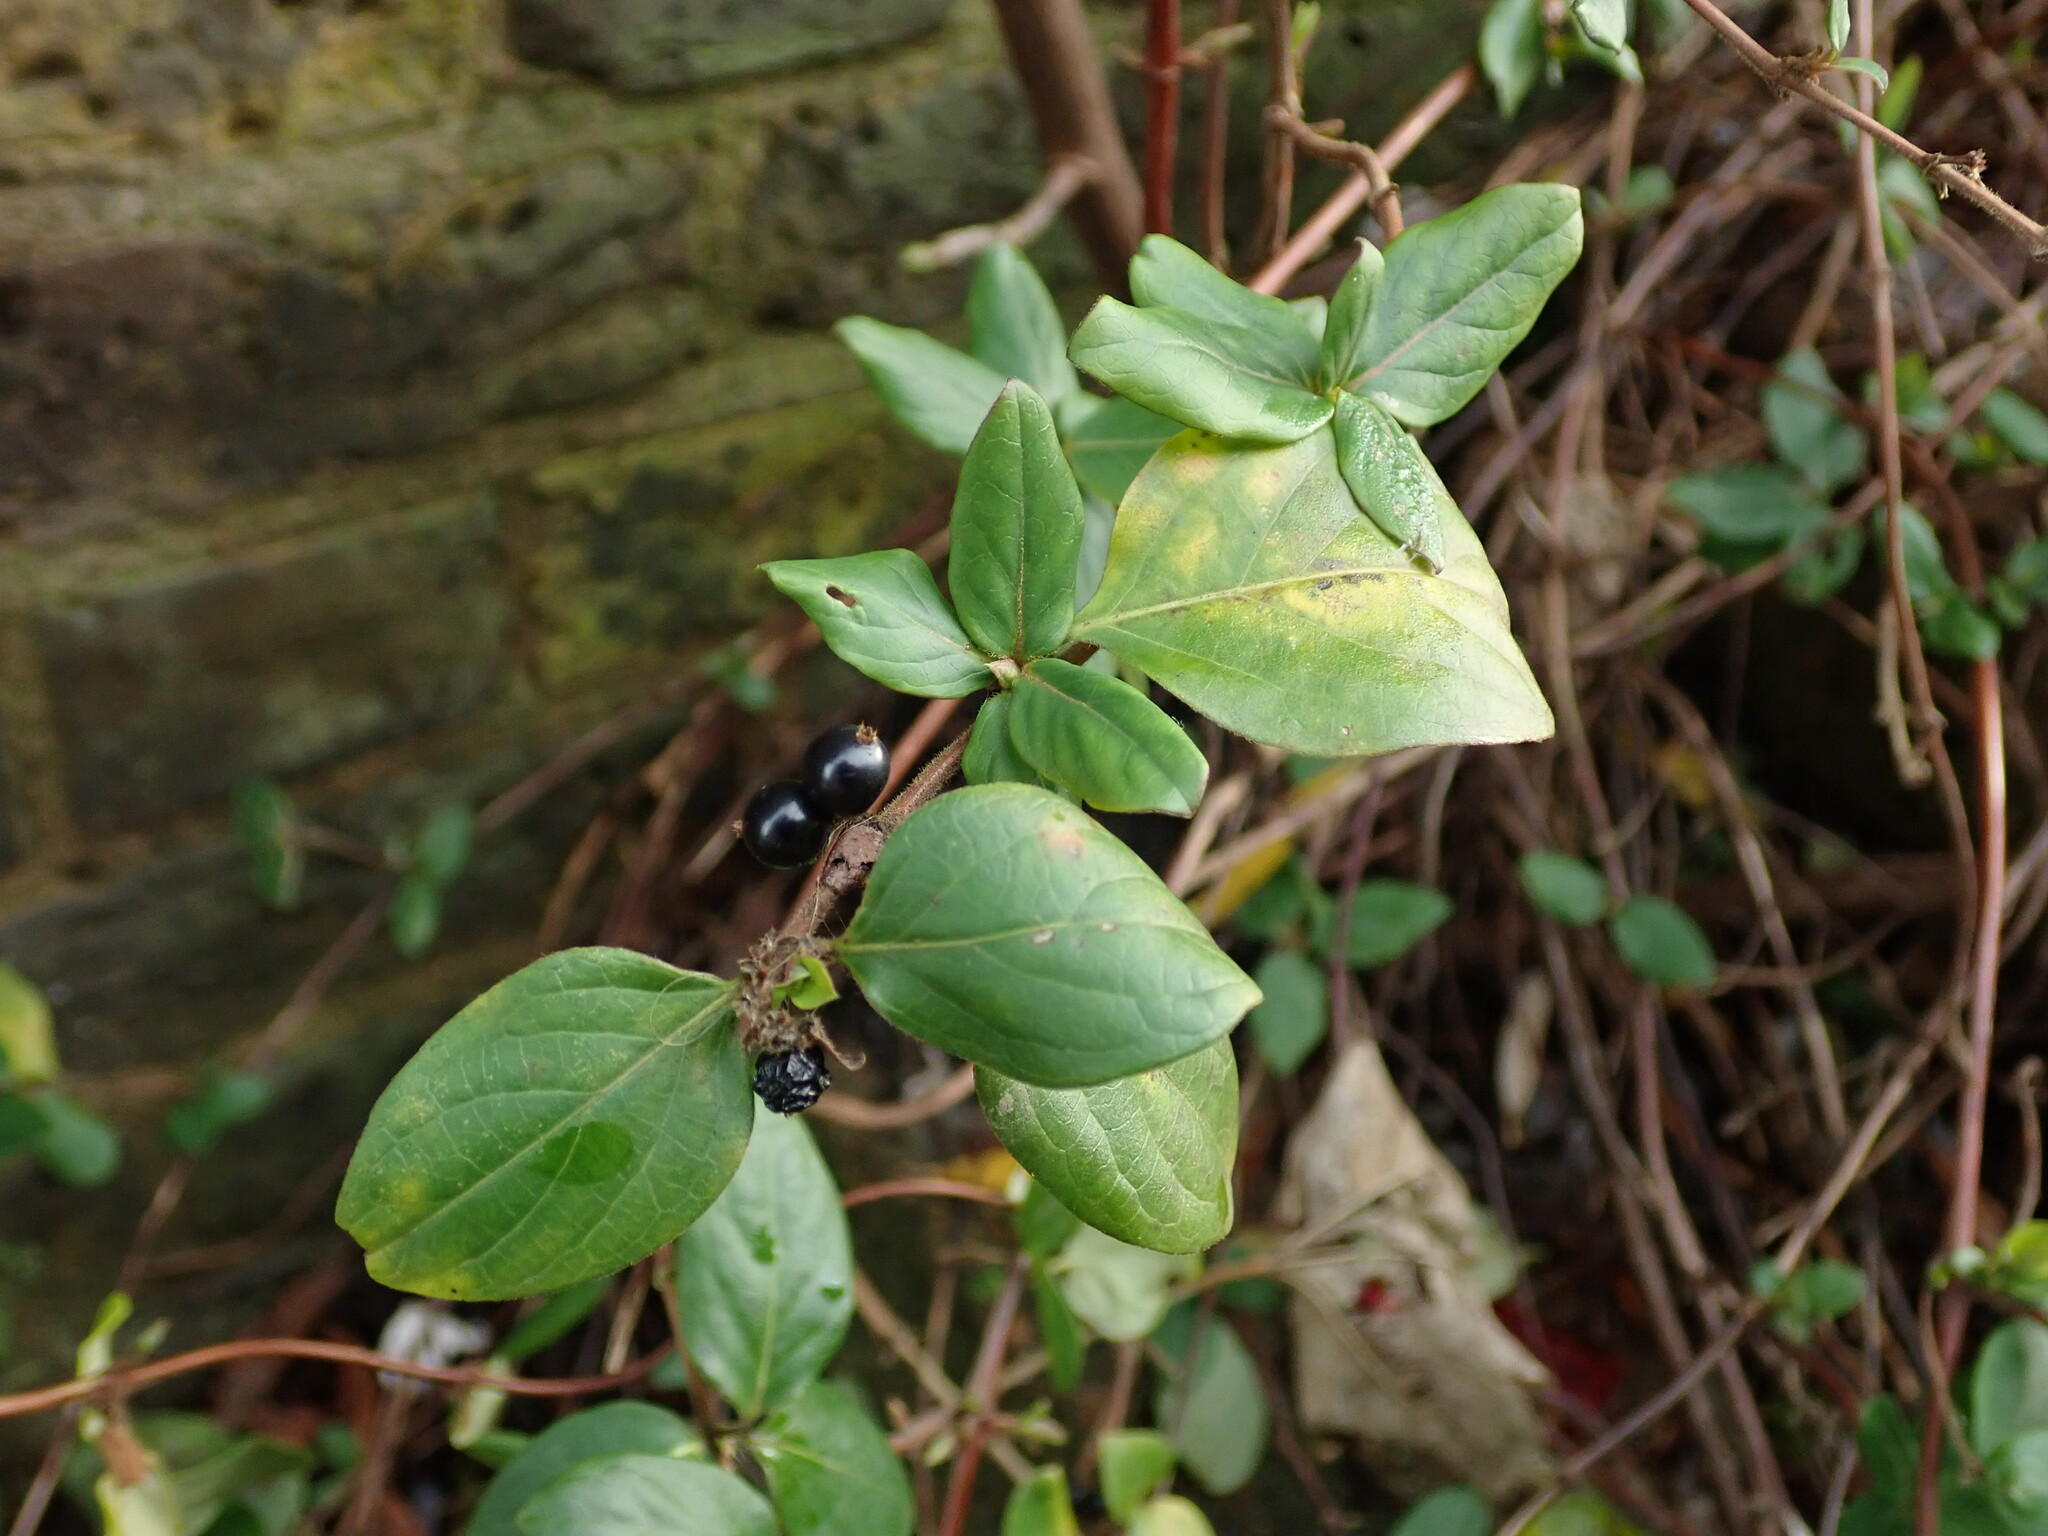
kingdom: Plantae
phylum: Tracheophyta
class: Magnoliopsida
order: Dipsacales
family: Caprifoliaceae
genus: Lonicera
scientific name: Lonicera japonica
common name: Japanese honeysuckle
